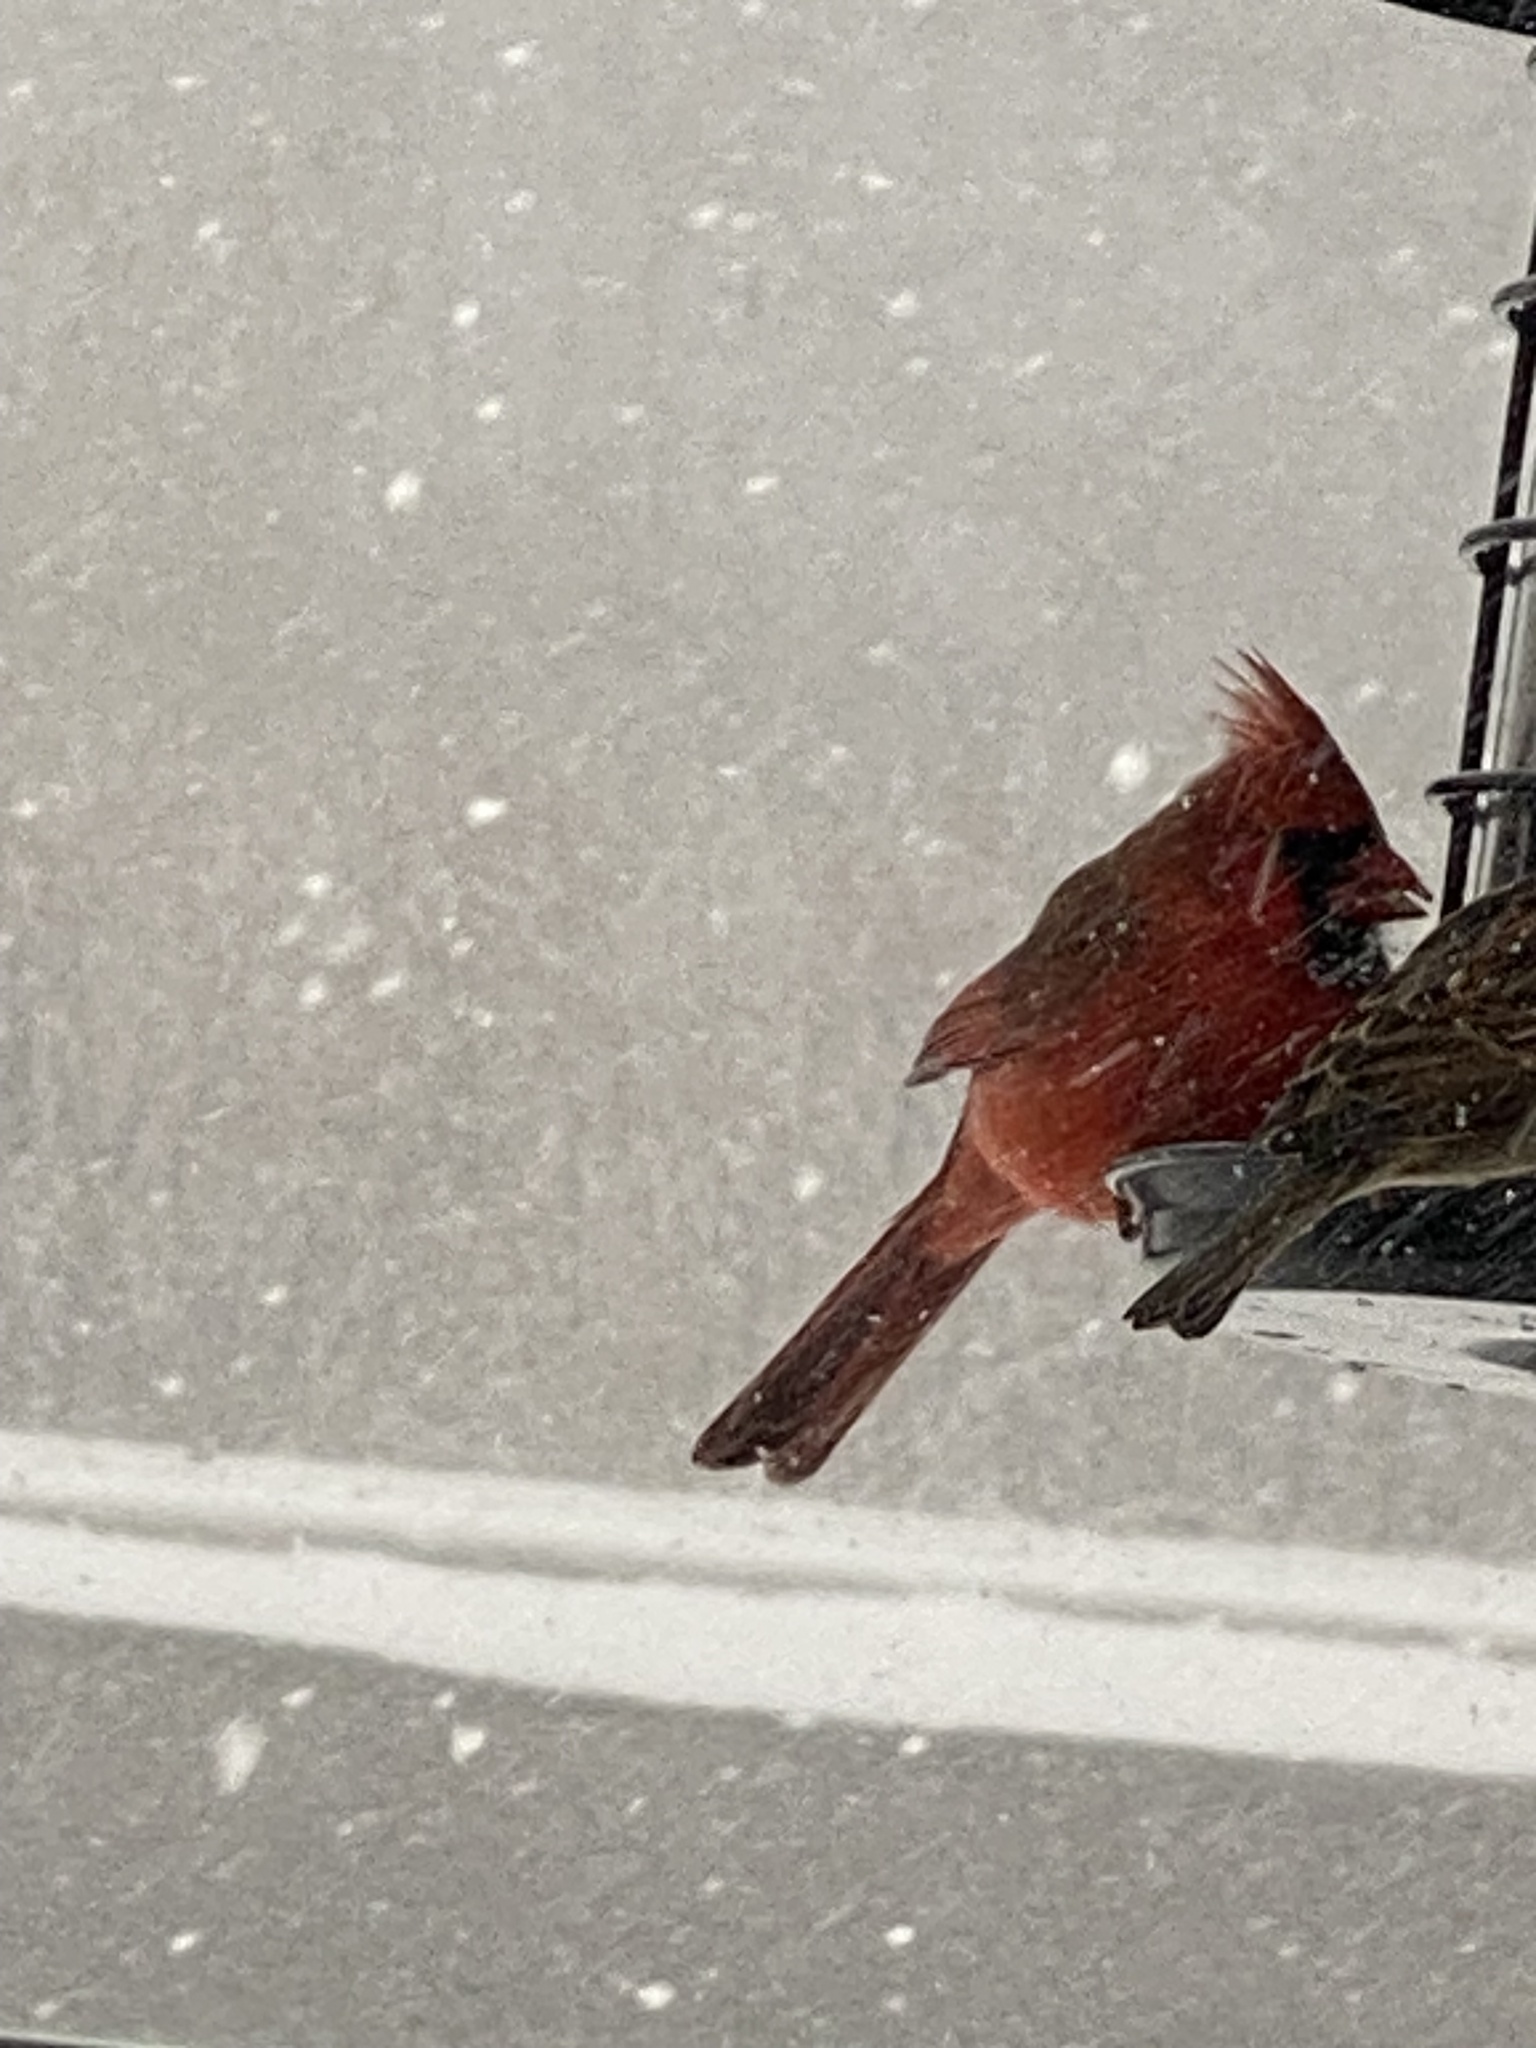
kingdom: Animalia
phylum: Chordata
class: Aves
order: Passeriformes
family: Cardinalidae
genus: Cardinalis
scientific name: Cardinalis cardinalis
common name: Northern cardinal
